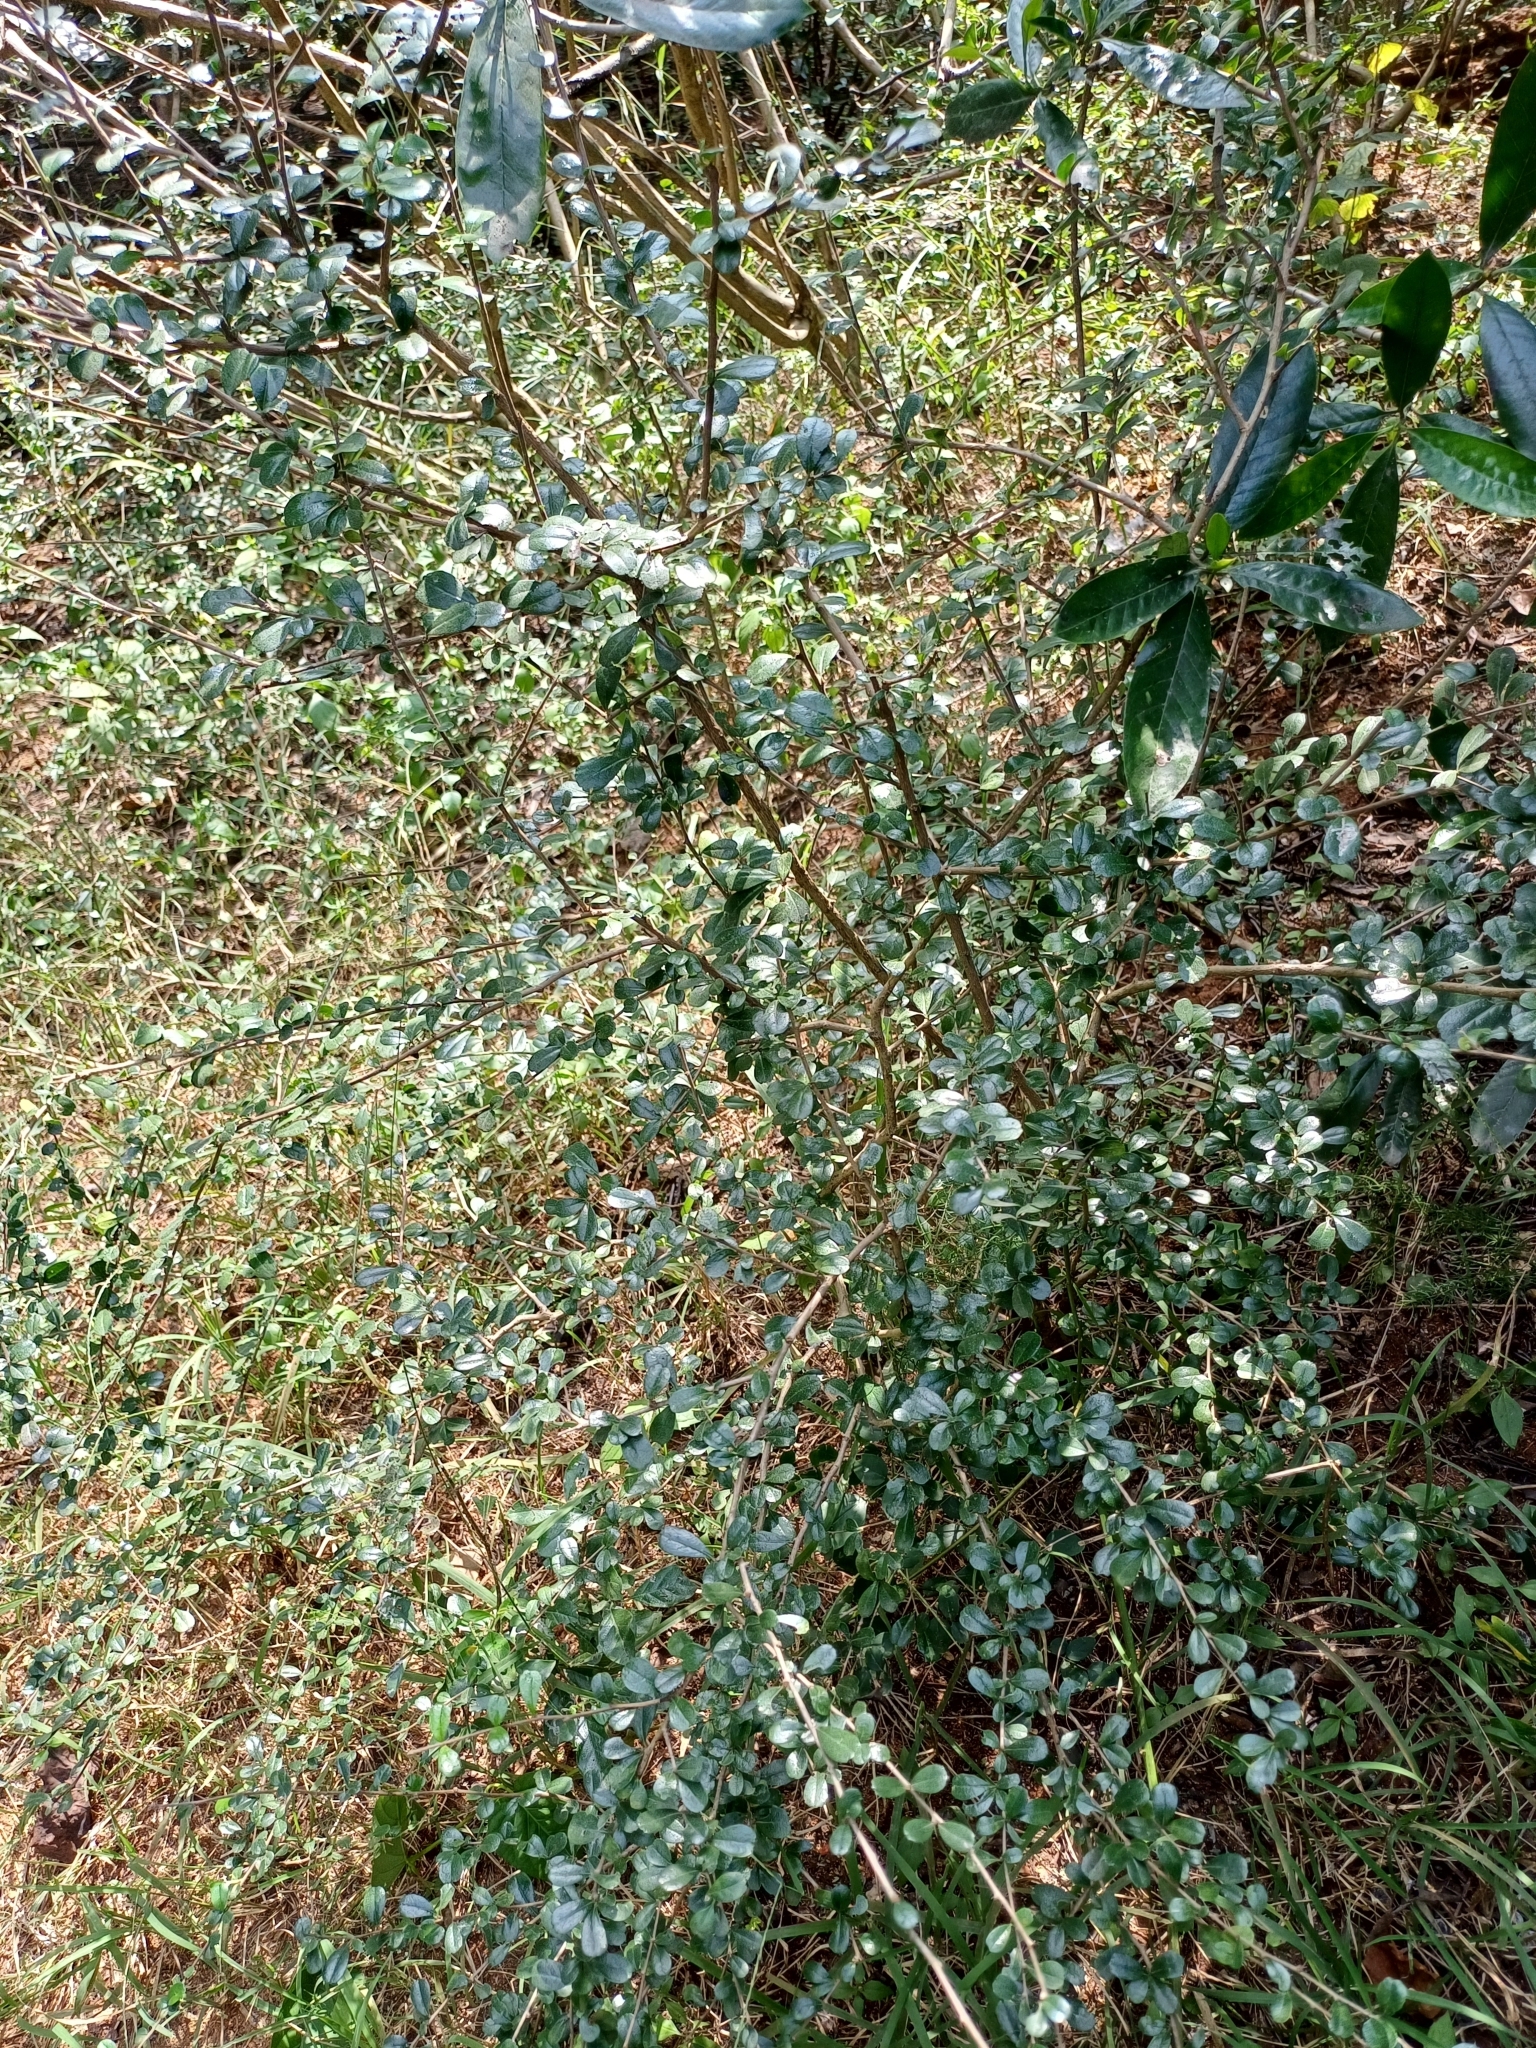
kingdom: Plantae
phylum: Tracheophyta
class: Magnoliopsida
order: Boraginales
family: Ehretiaceae
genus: Ehretia
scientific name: Ehretia microphylla
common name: Fukien-tea
